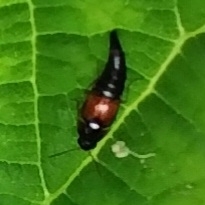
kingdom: Animalia
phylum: Arthropoda
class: Insecta
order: Coleoptera
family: Staphylinidae
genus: Tachyporus
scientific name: Tachyporus hypnorum
